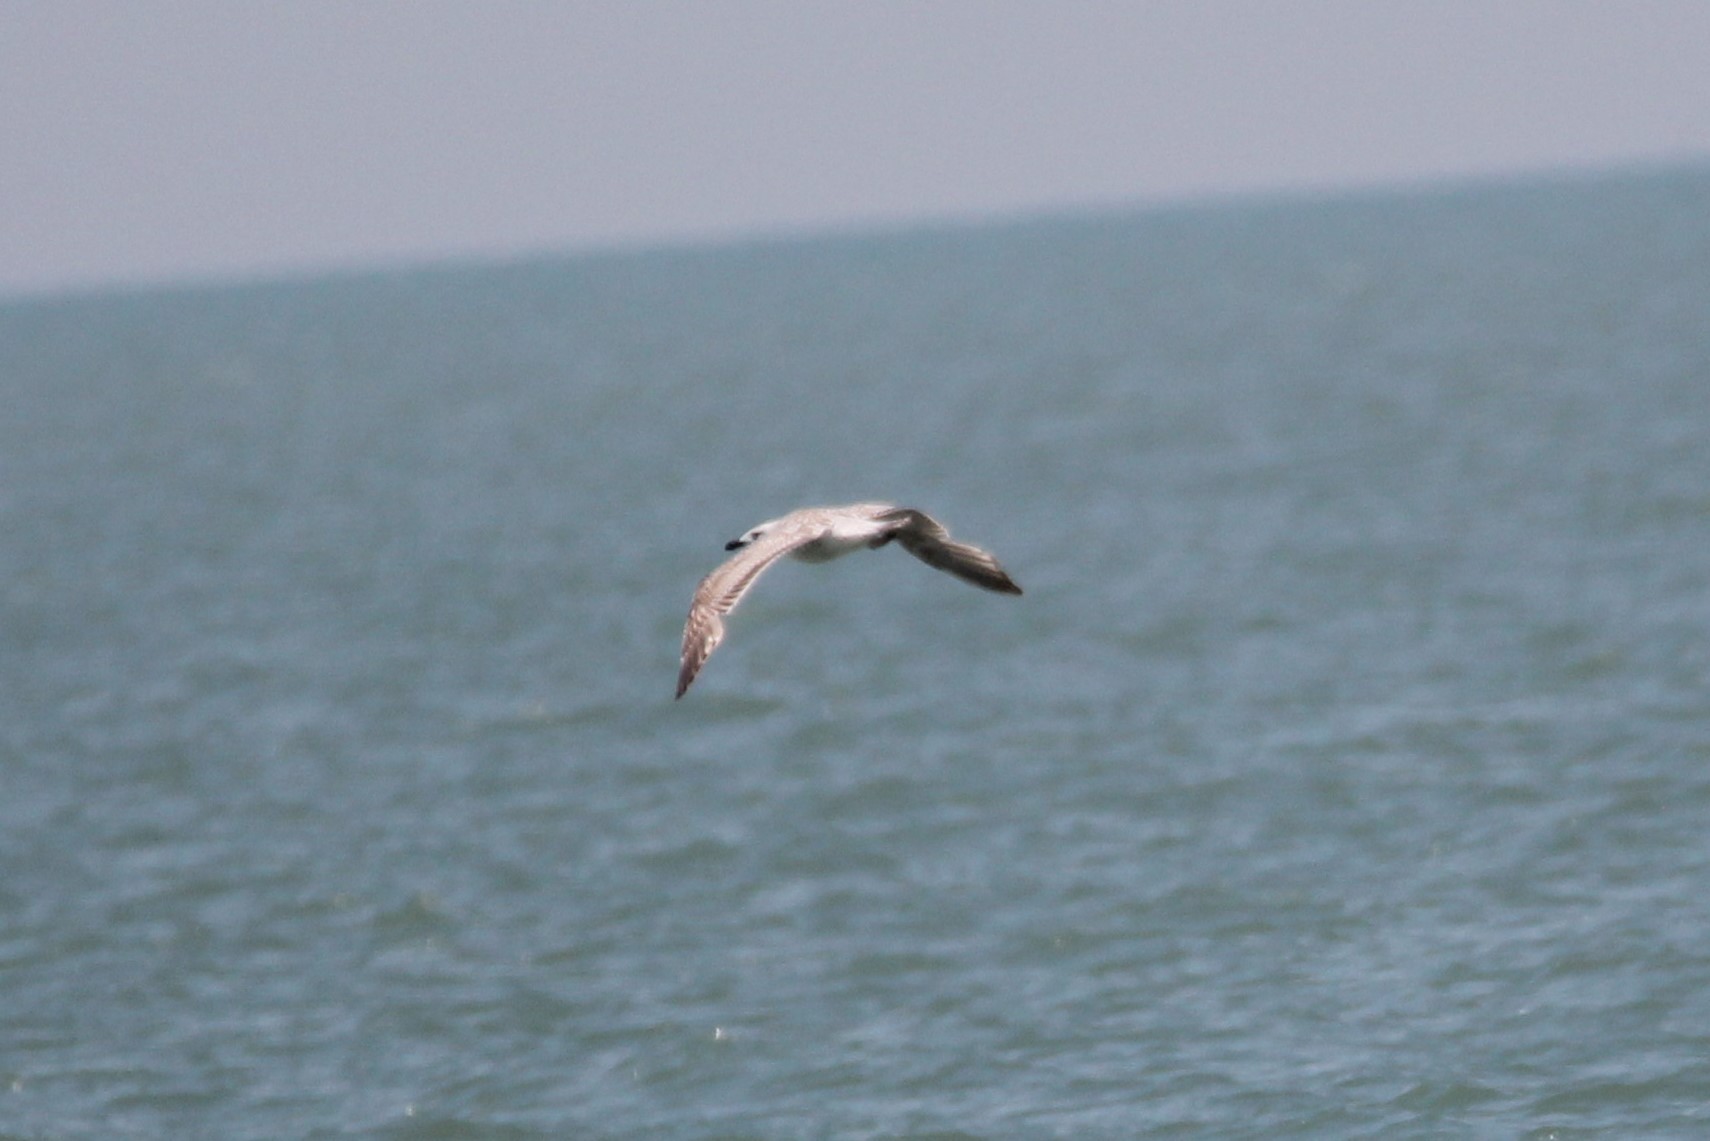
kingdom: Animalia
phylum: Chordata
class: Aves
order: Charadriiformes
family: Laridae
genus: Larus
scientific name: Larus marinus
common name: Great black-backed gull
